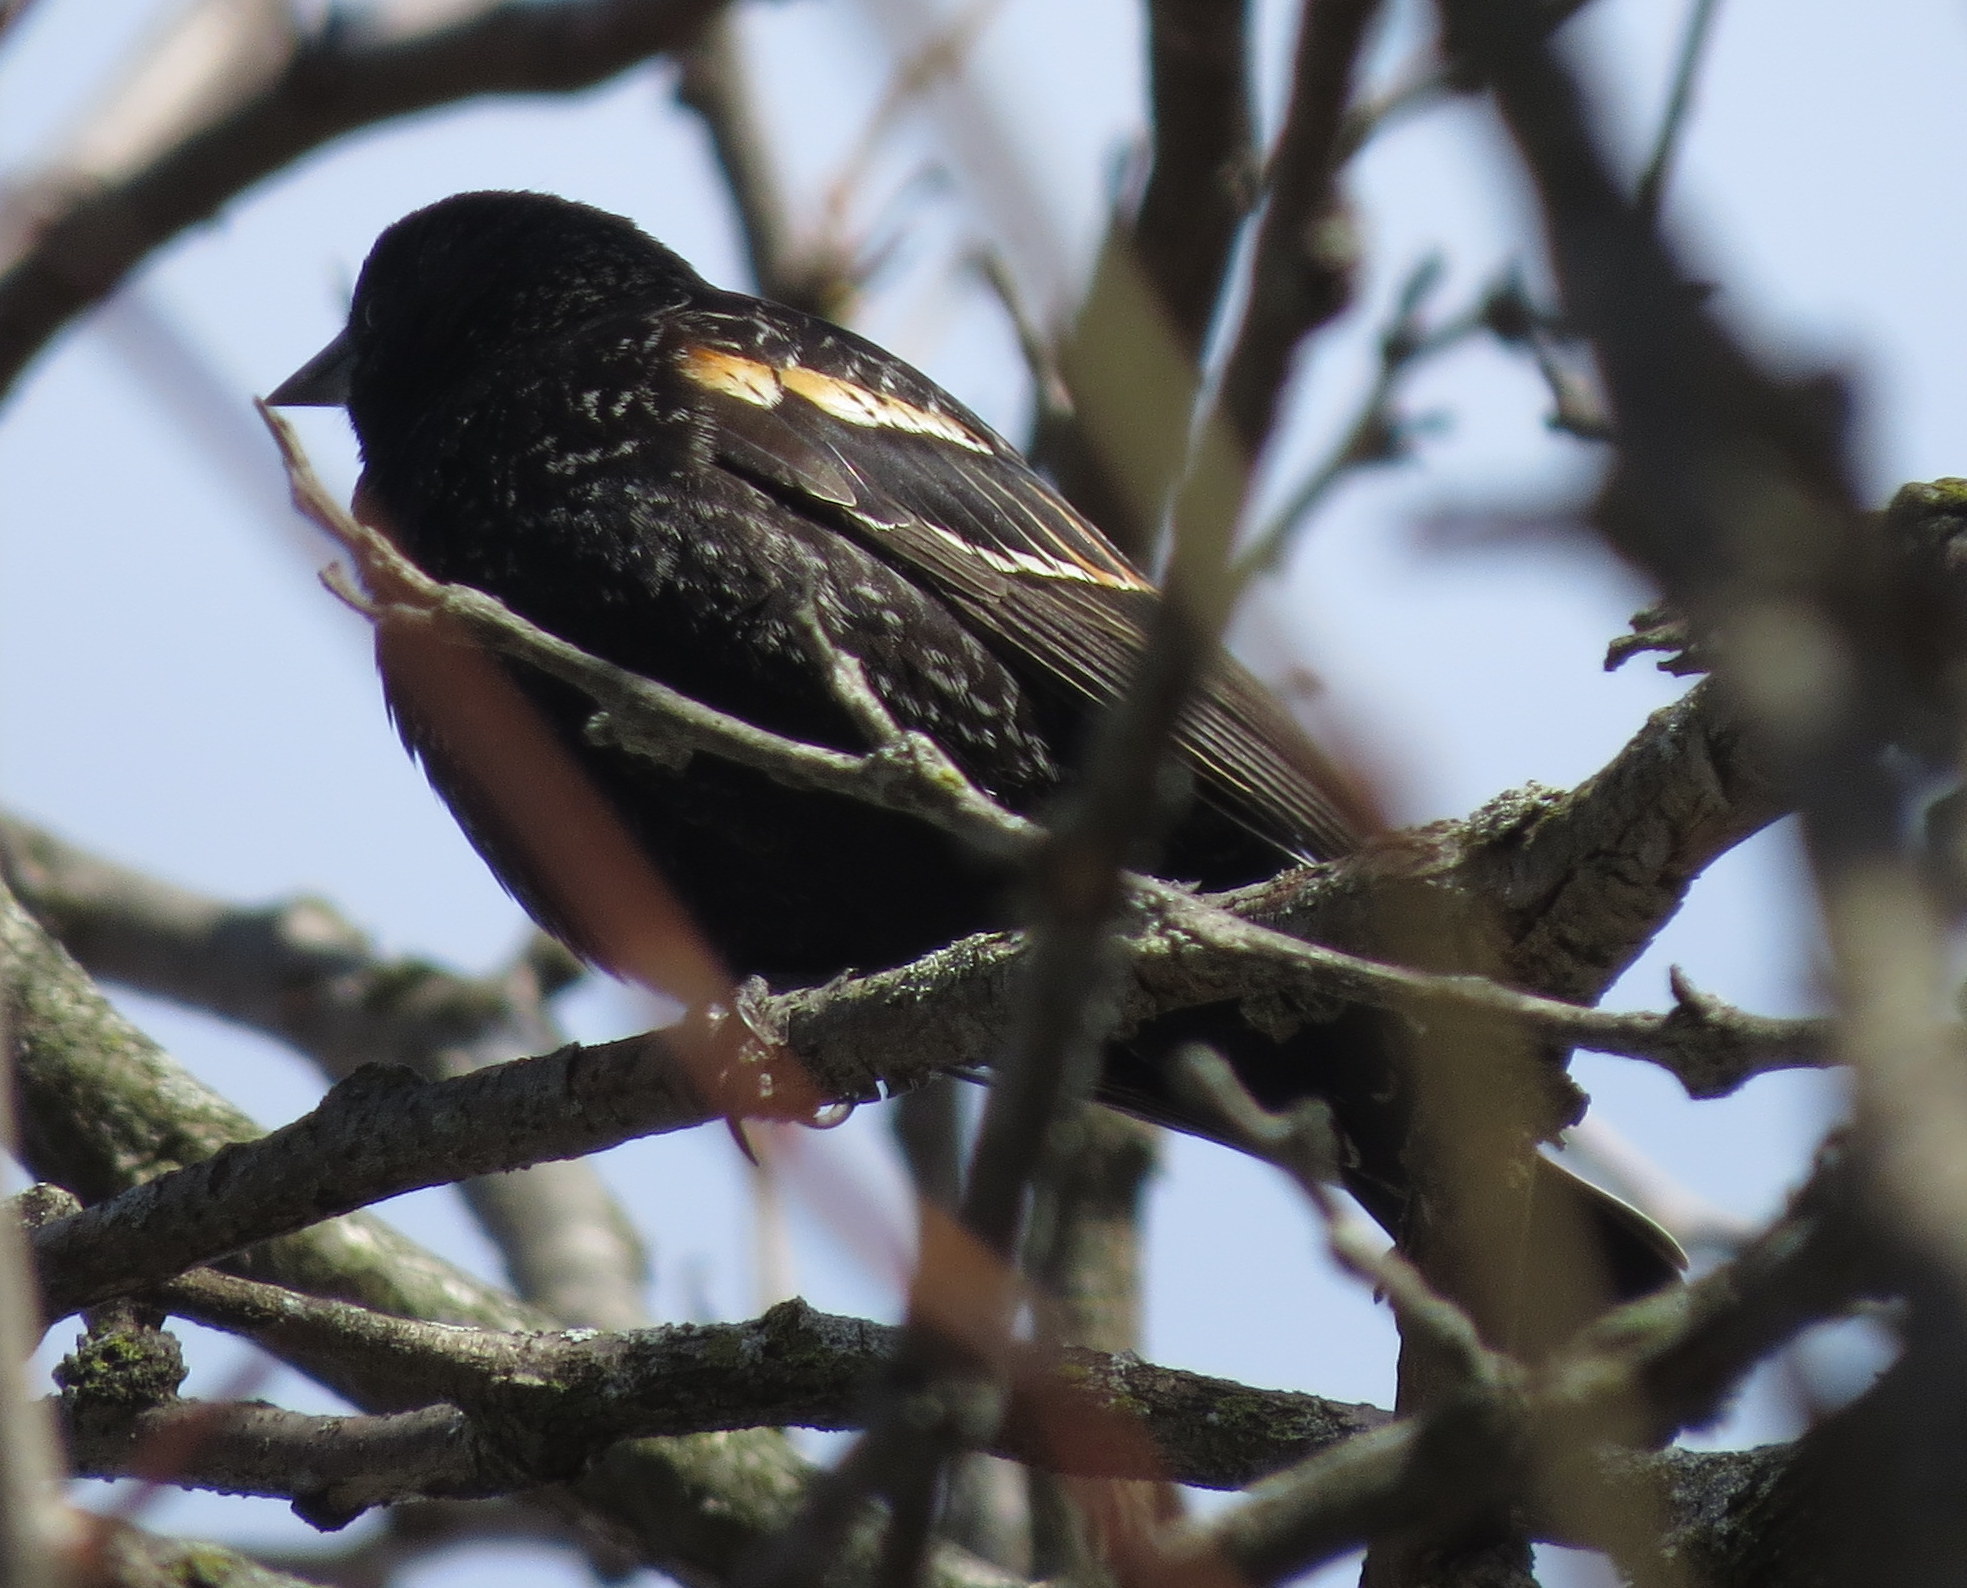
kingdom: Animalia
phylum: Chordata
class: Aves
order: Passeriformes
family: Icteridae
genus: Agelaius
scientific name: Agelaius phoeniceus
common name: Red-winged blackbird
